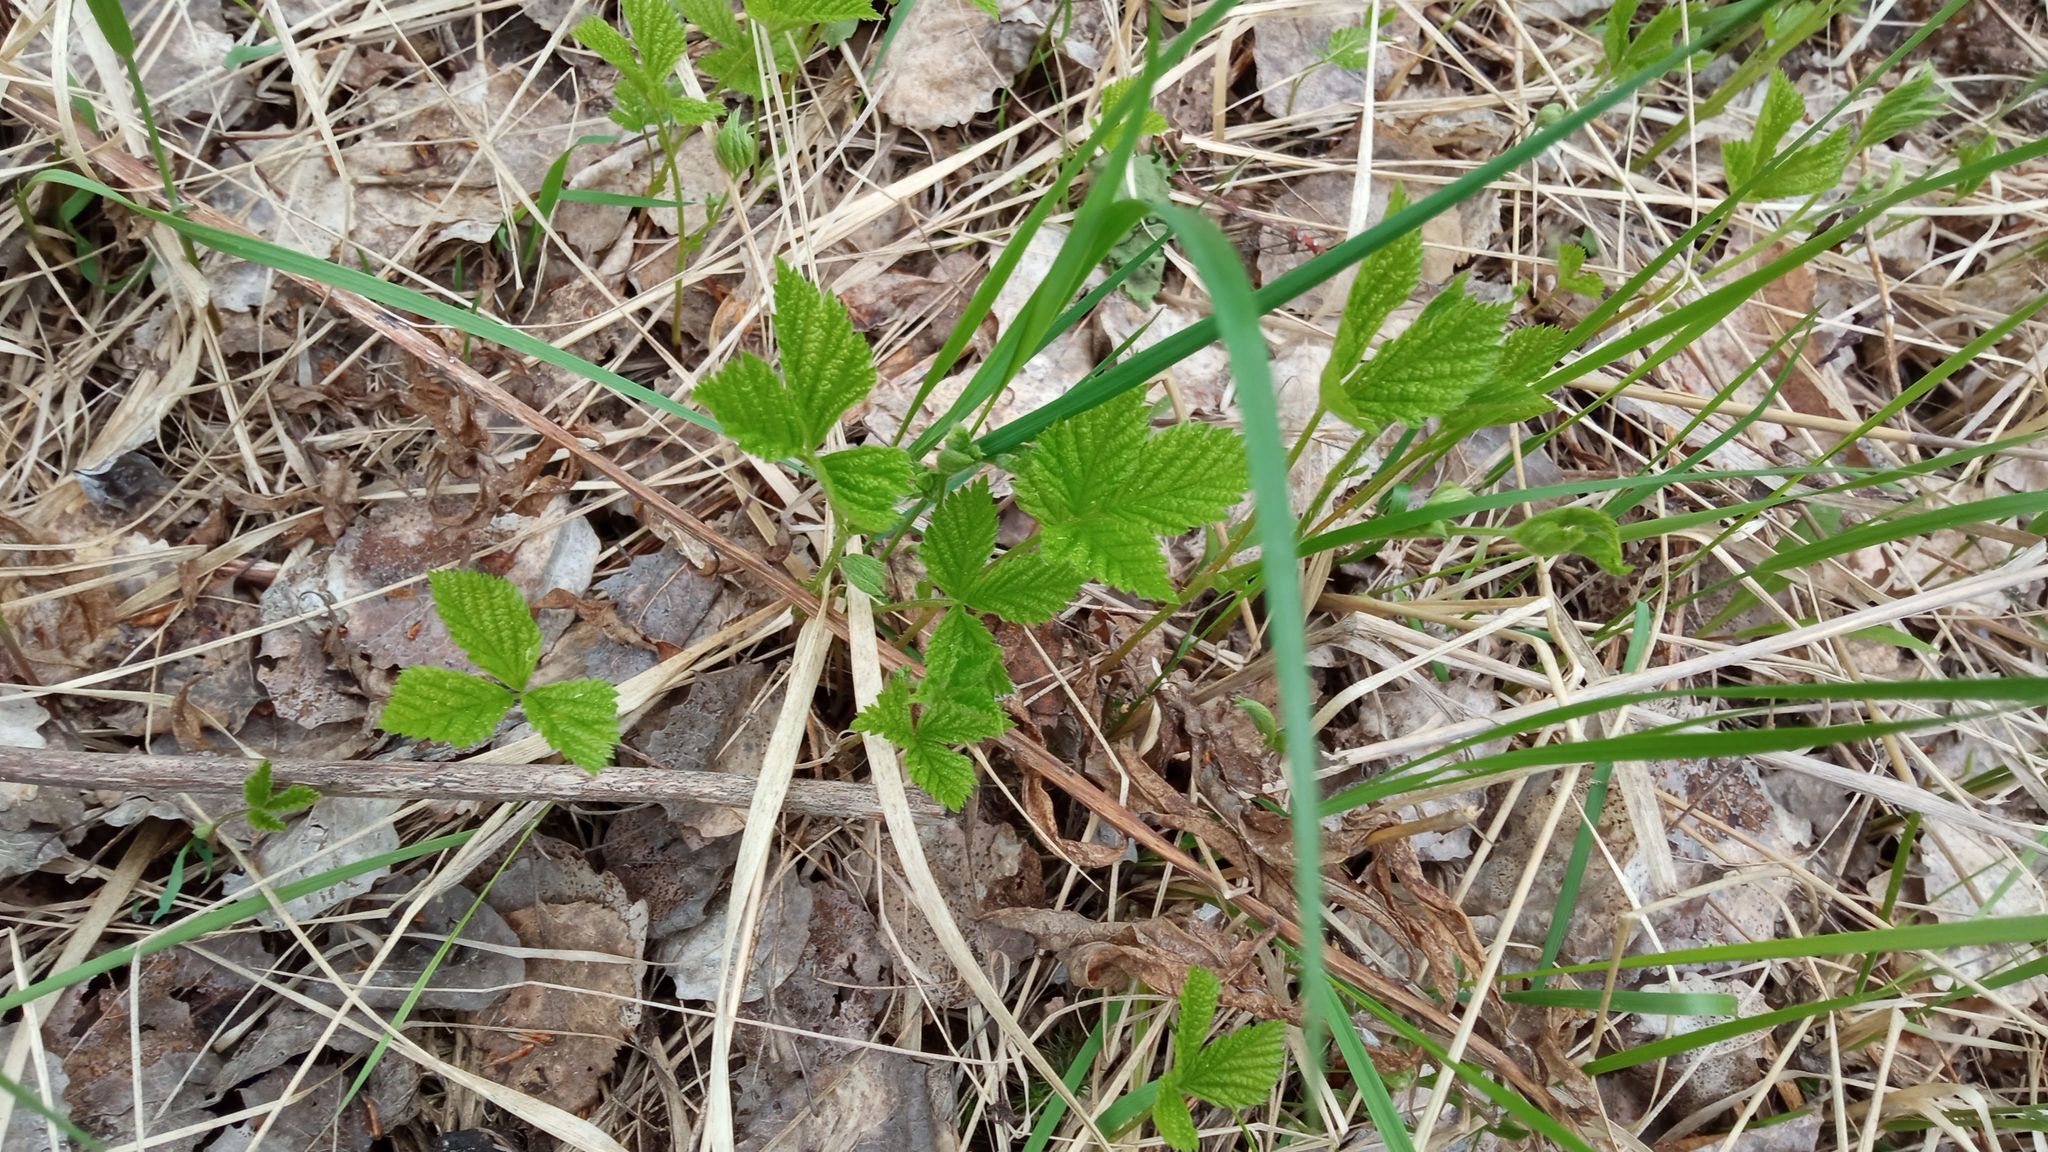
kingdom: Plantae
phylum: Tracheophyta
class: Magnoliopsida
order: Rosales
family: Rosaceae
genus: Rubus
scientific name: Rubus saxatilis
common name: Stone bramble
